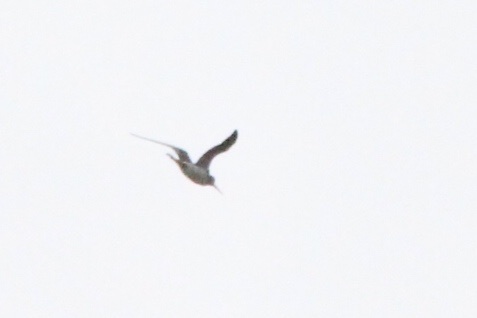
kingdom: Animalia
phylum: Chordata
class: Aves
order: Charadriiformes
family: Scolopacidae
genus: Tringa
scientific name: Tringa melanoleuca
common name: Greater yellowlegs
